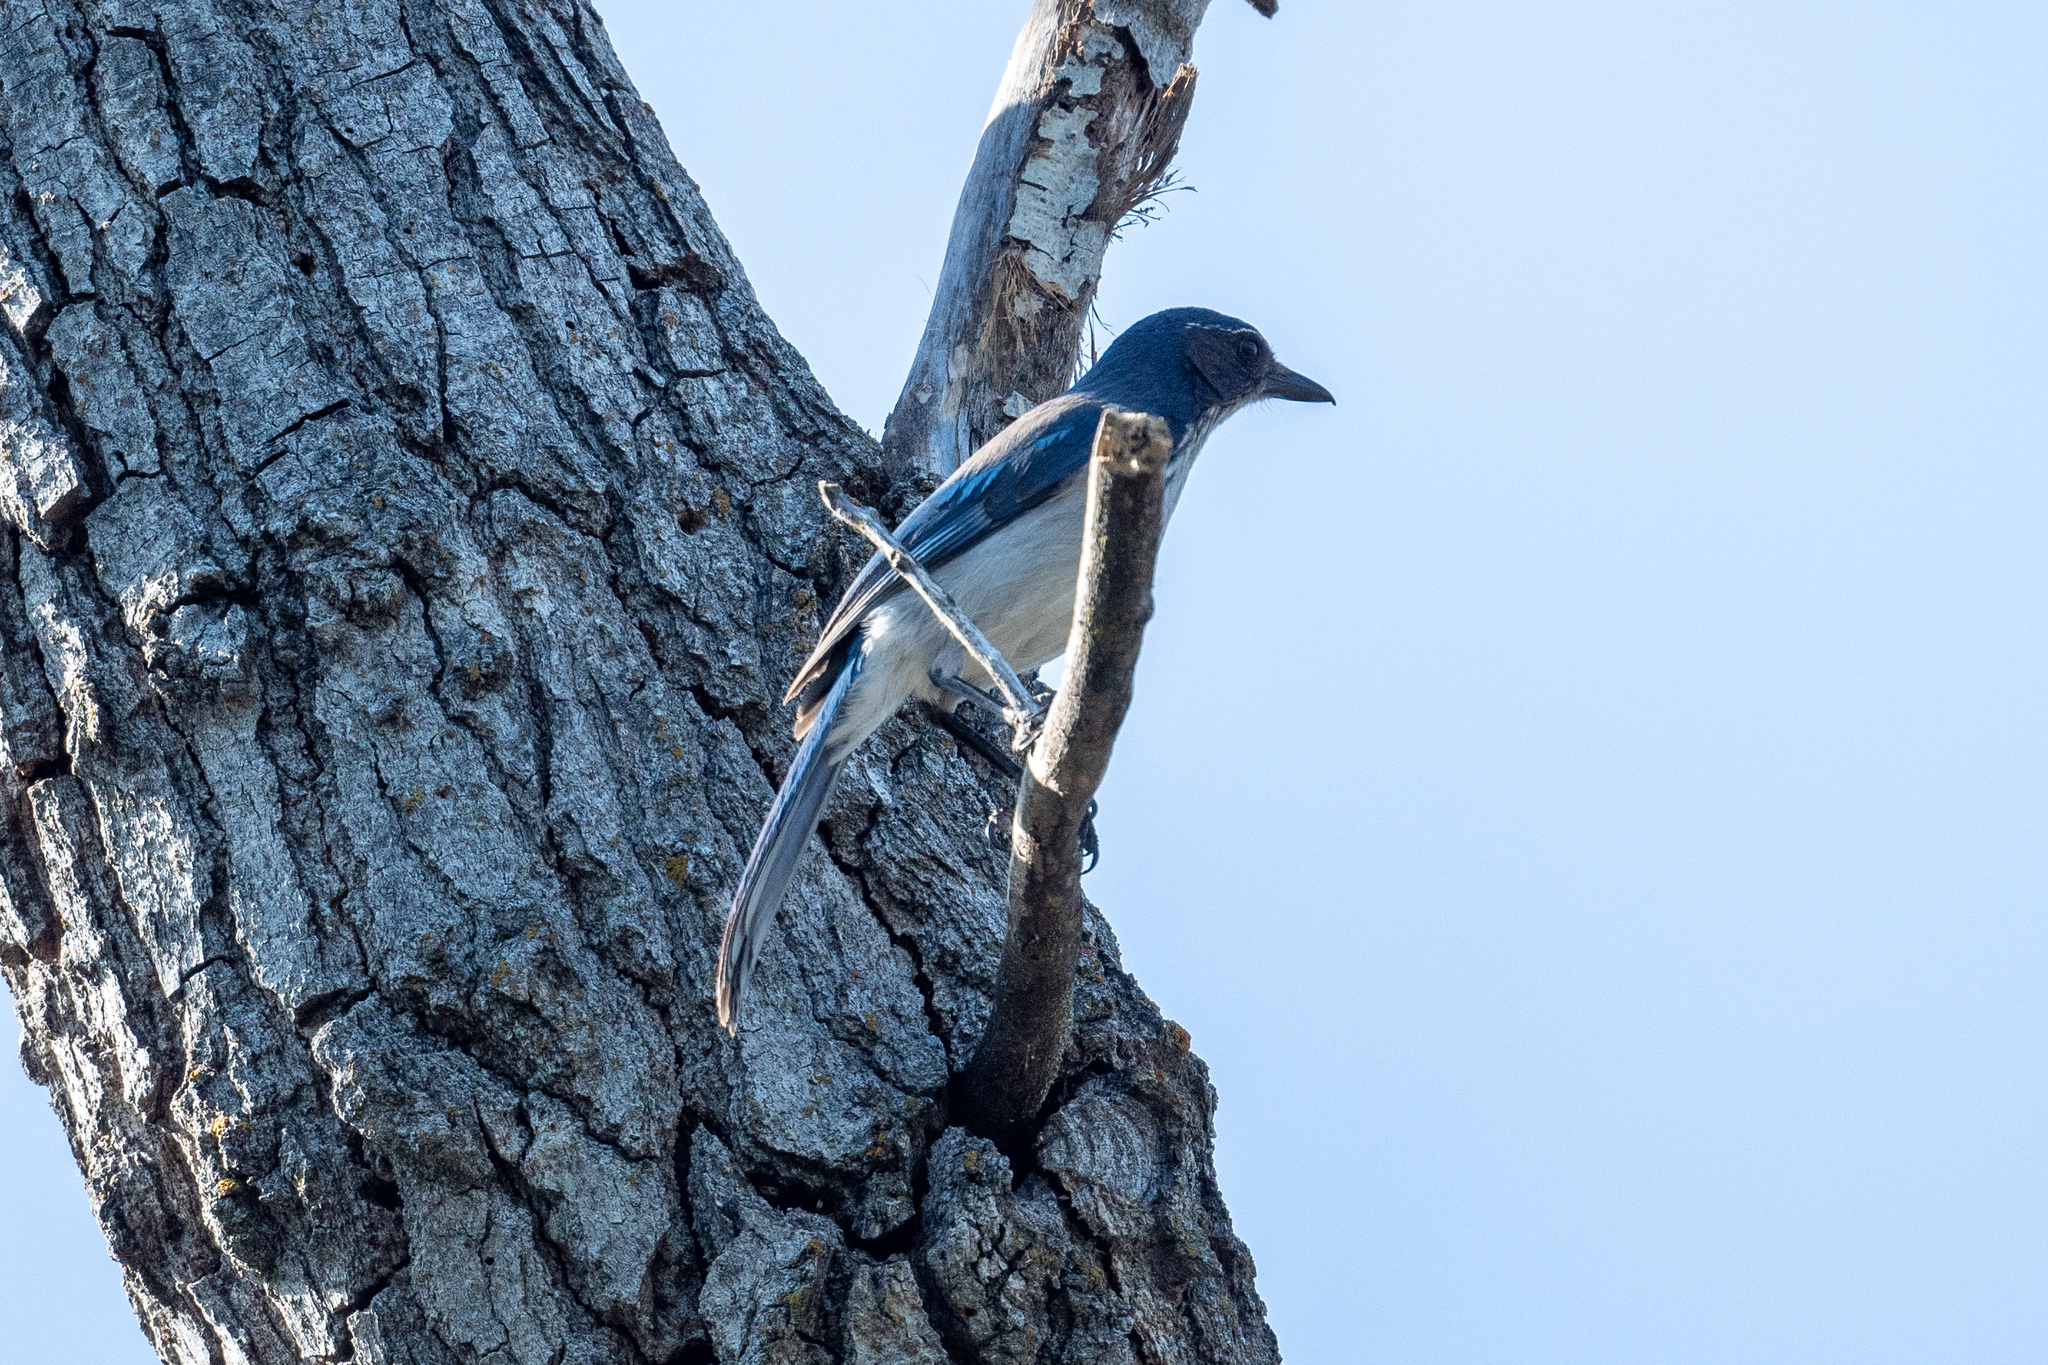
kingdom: Animalia
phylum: Chordata
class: Aves
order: Passeriformes
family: Corvidae
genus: Aphelocoma
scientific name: Aphelocoma californica
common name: California scrub-jay
